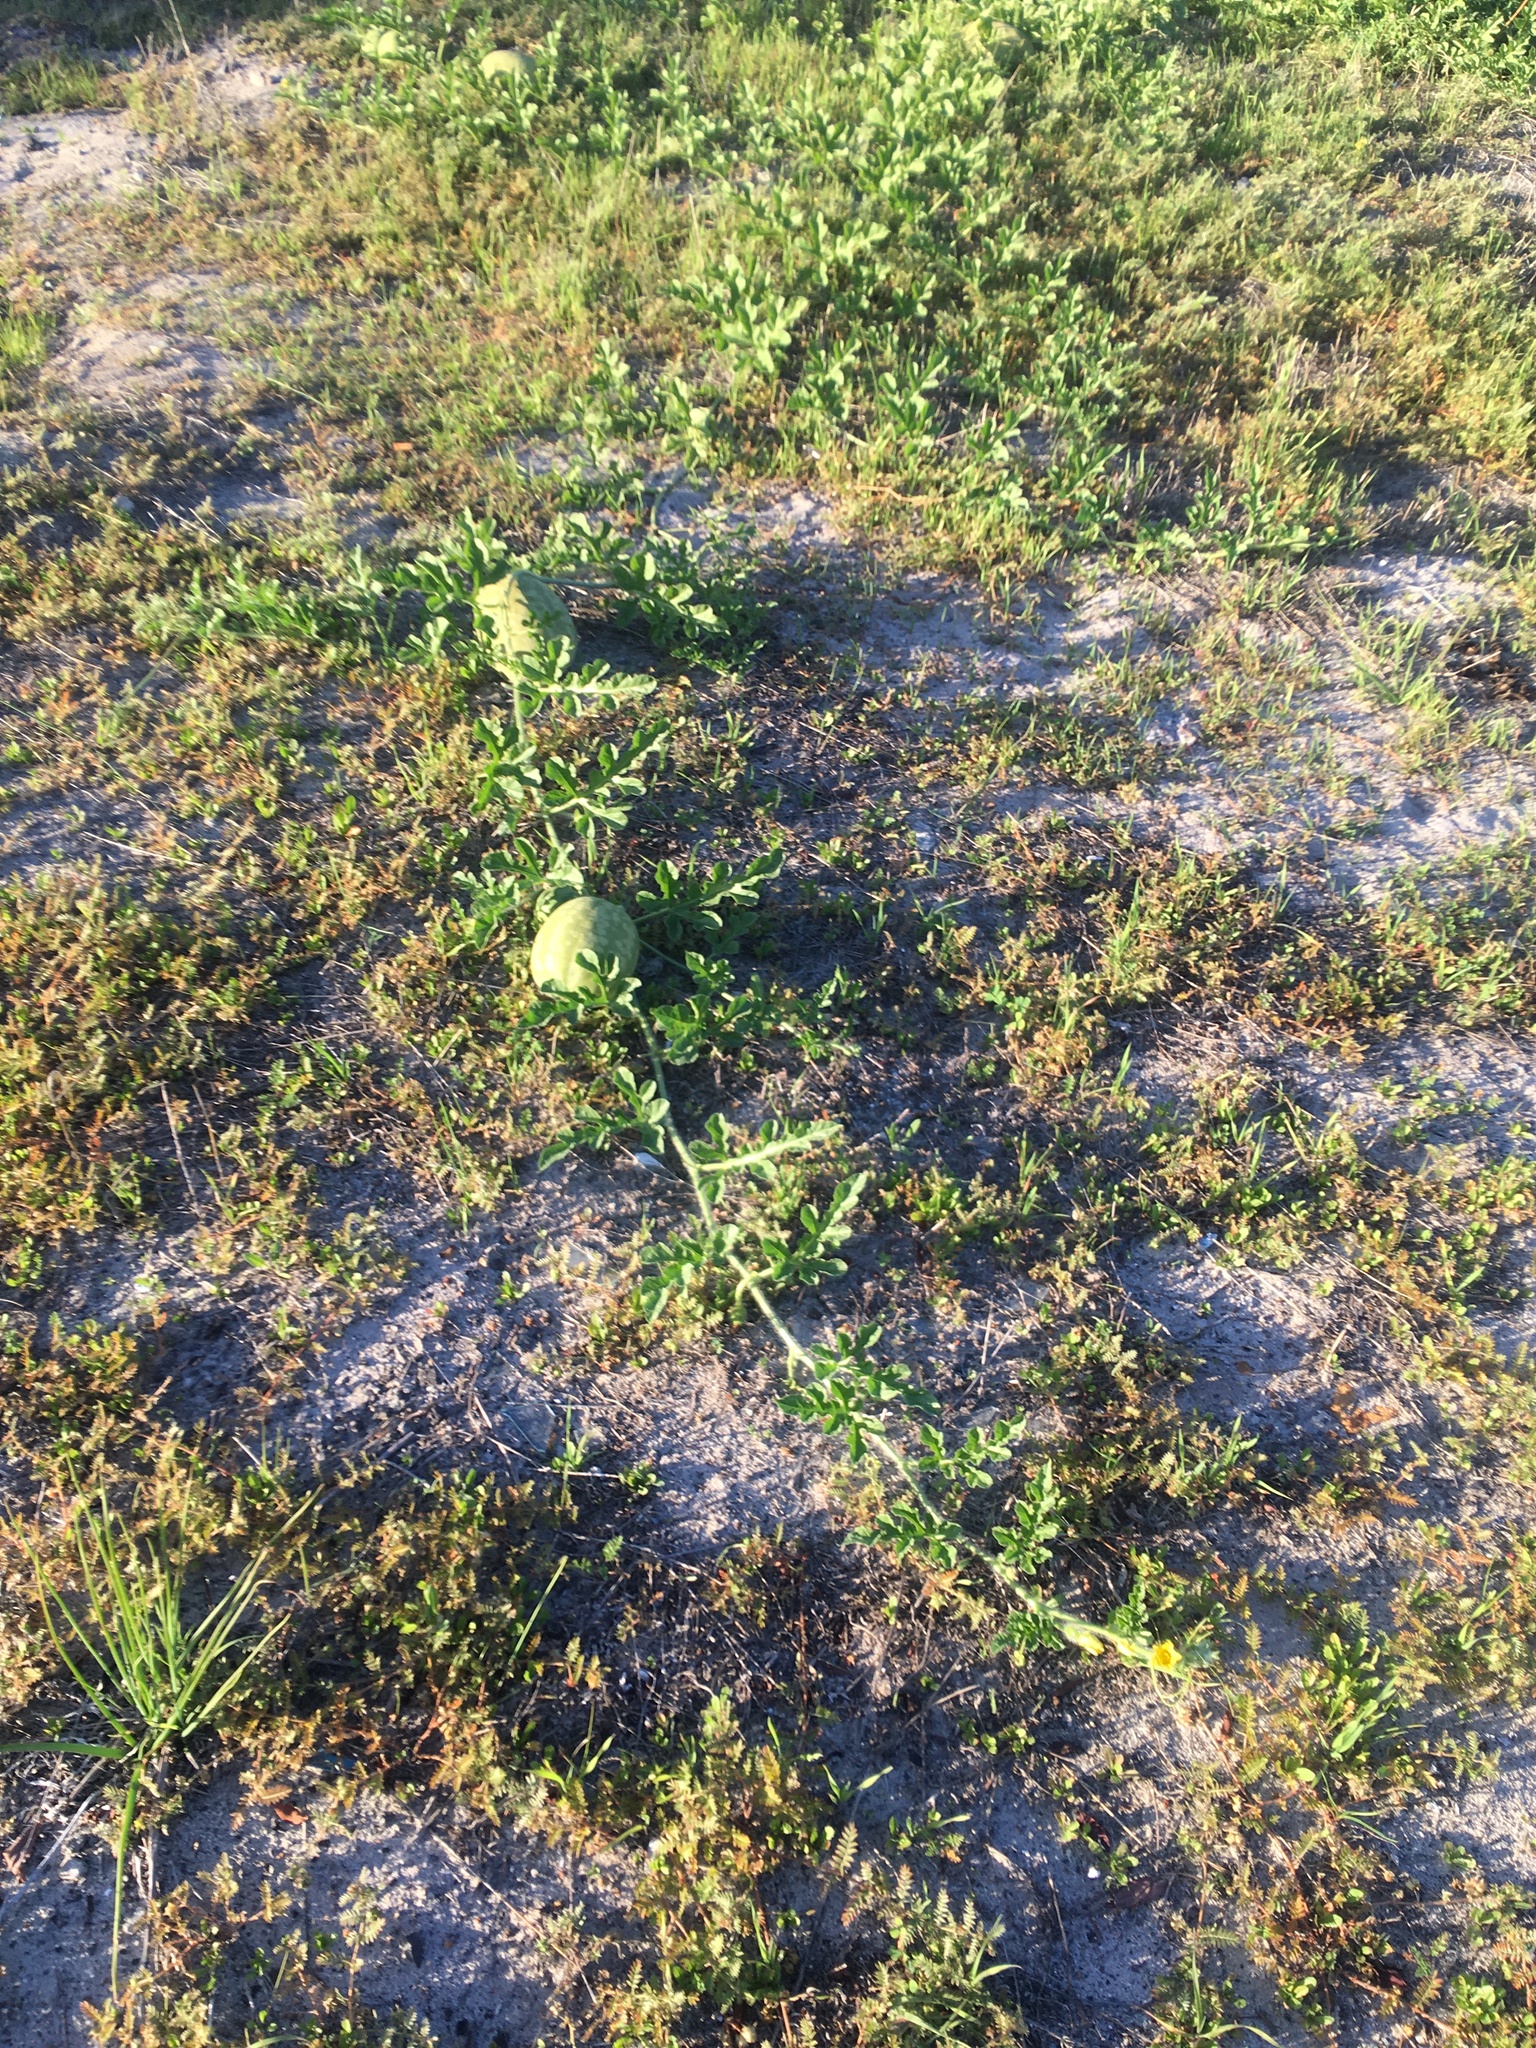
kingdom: Plantae
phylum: Tracheophyta
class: Magnoliopsida
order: Cucurbitales
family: Cucurbitaceae
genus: Citrullus
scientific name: Citrullus amarus
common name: Fodder-melon
